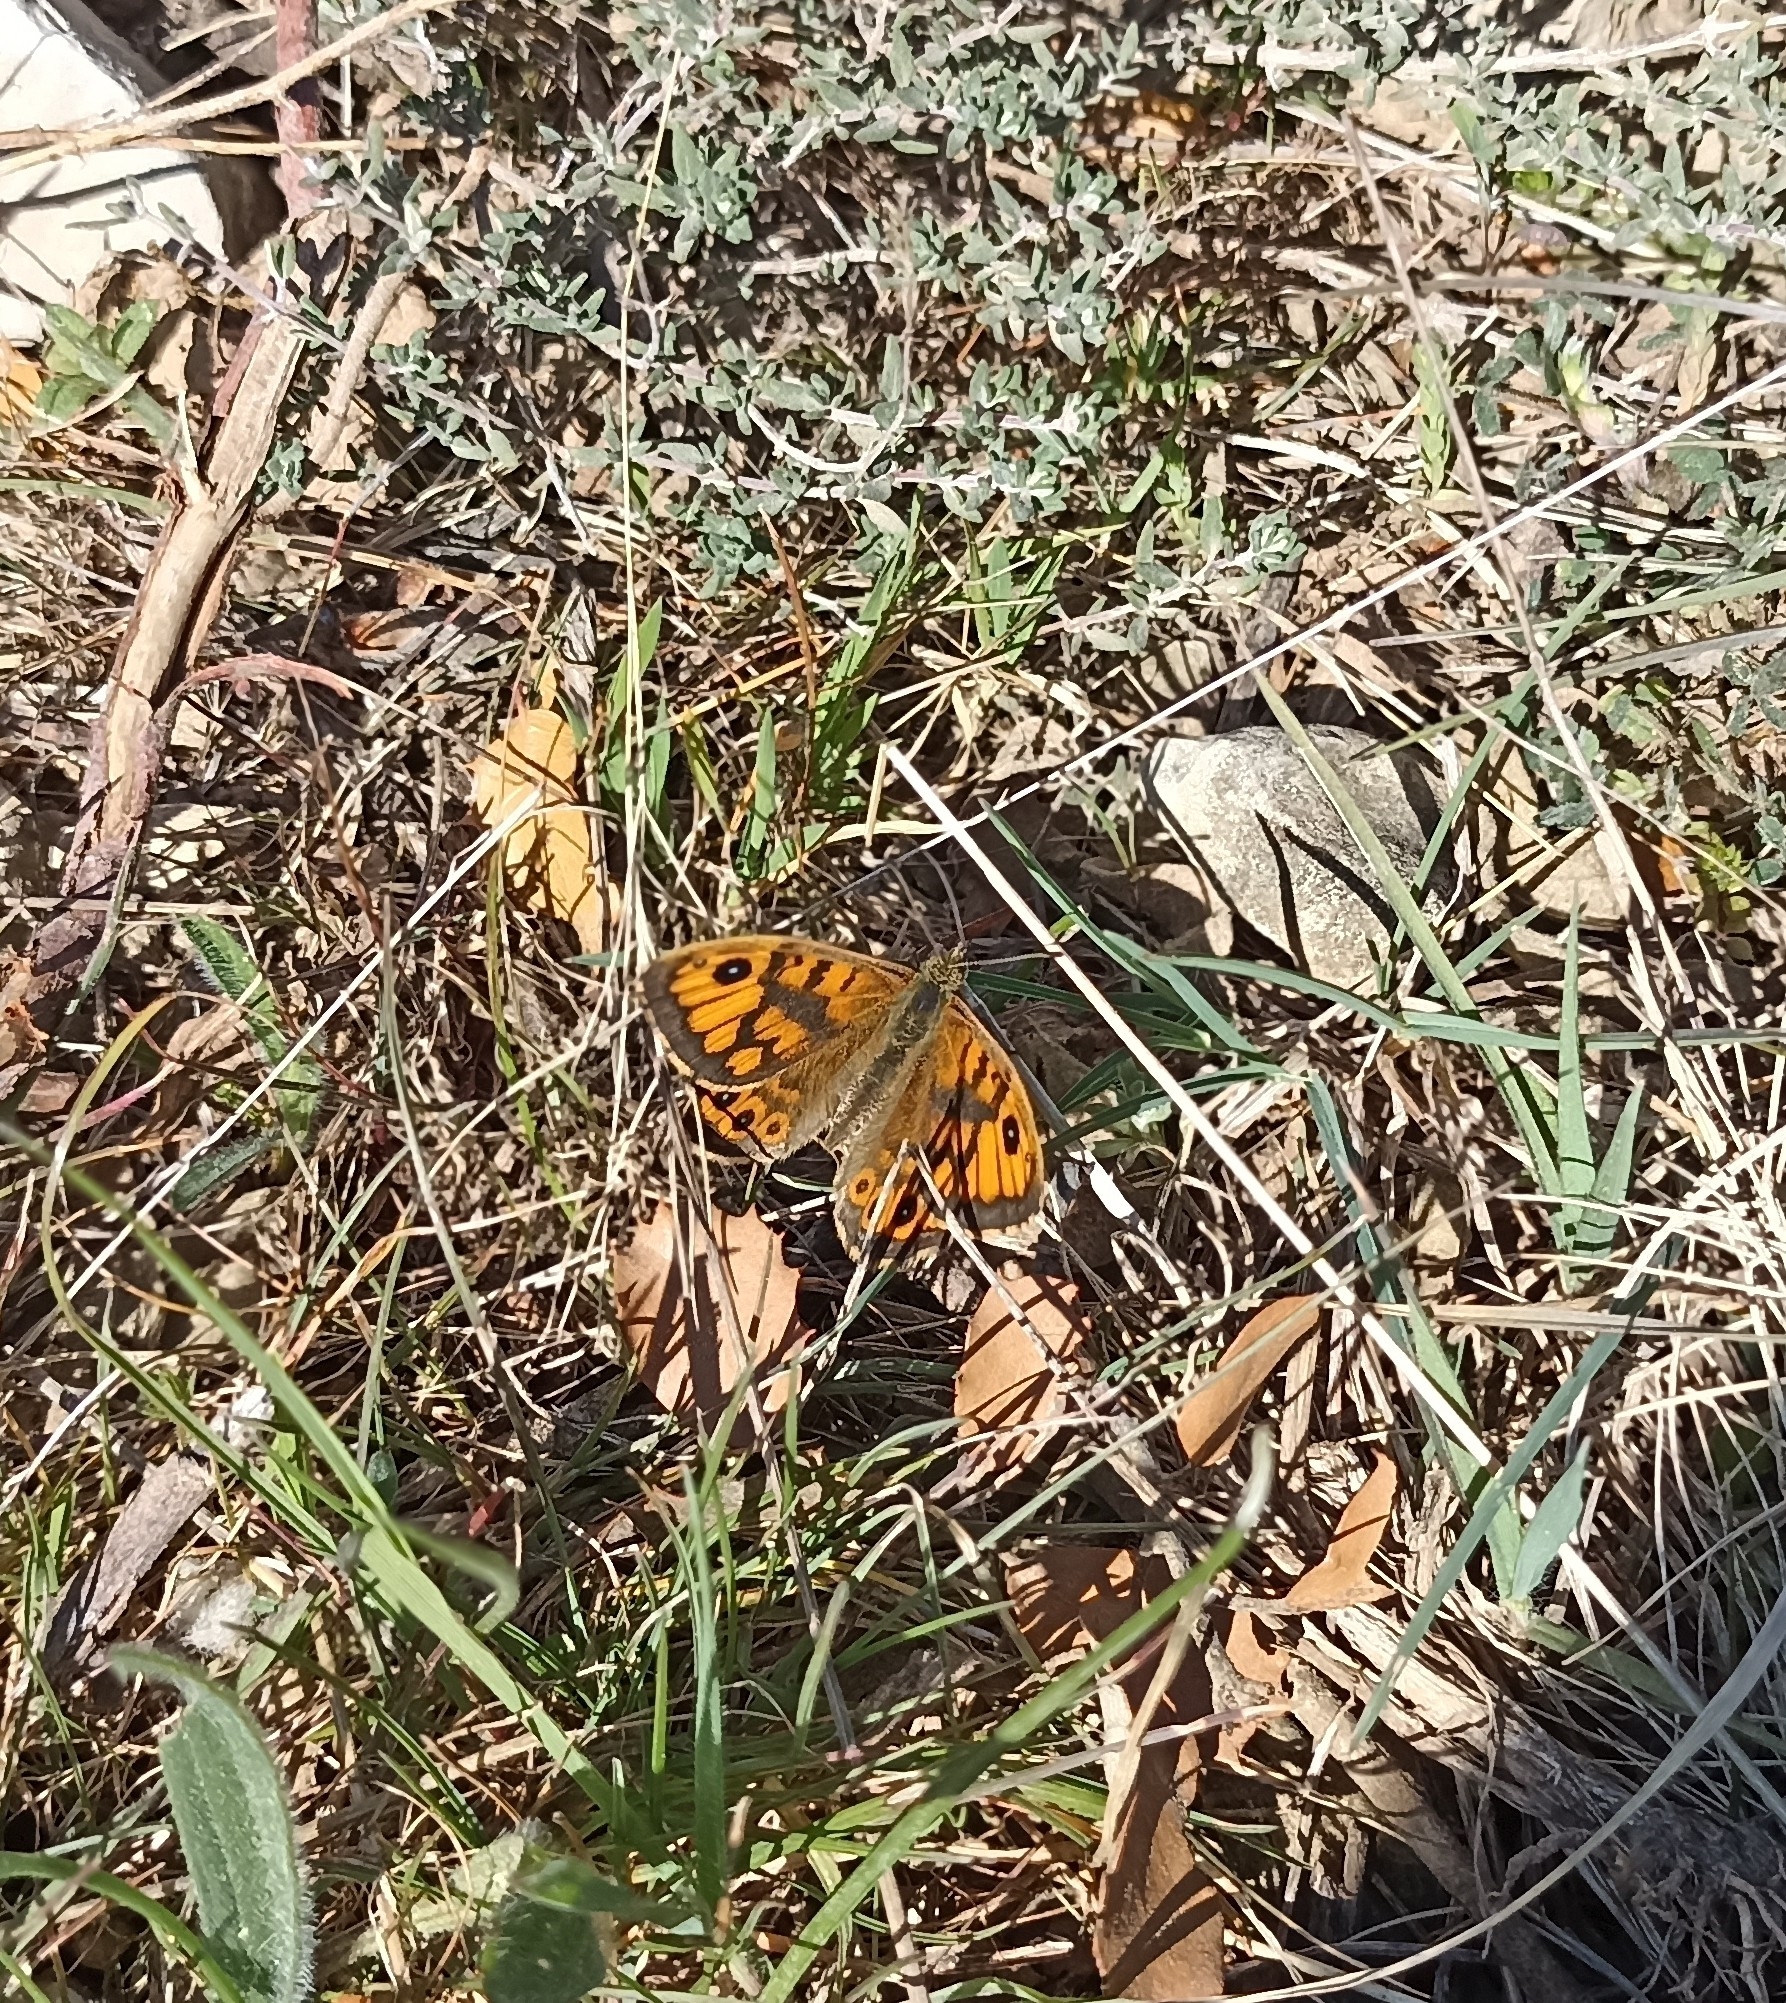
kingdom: Animalia
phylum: Arthropoda
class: Insecta
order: Lepidoptera
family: Nymphalidae
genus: Pararge
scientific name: Pararge Lasiommata megera
